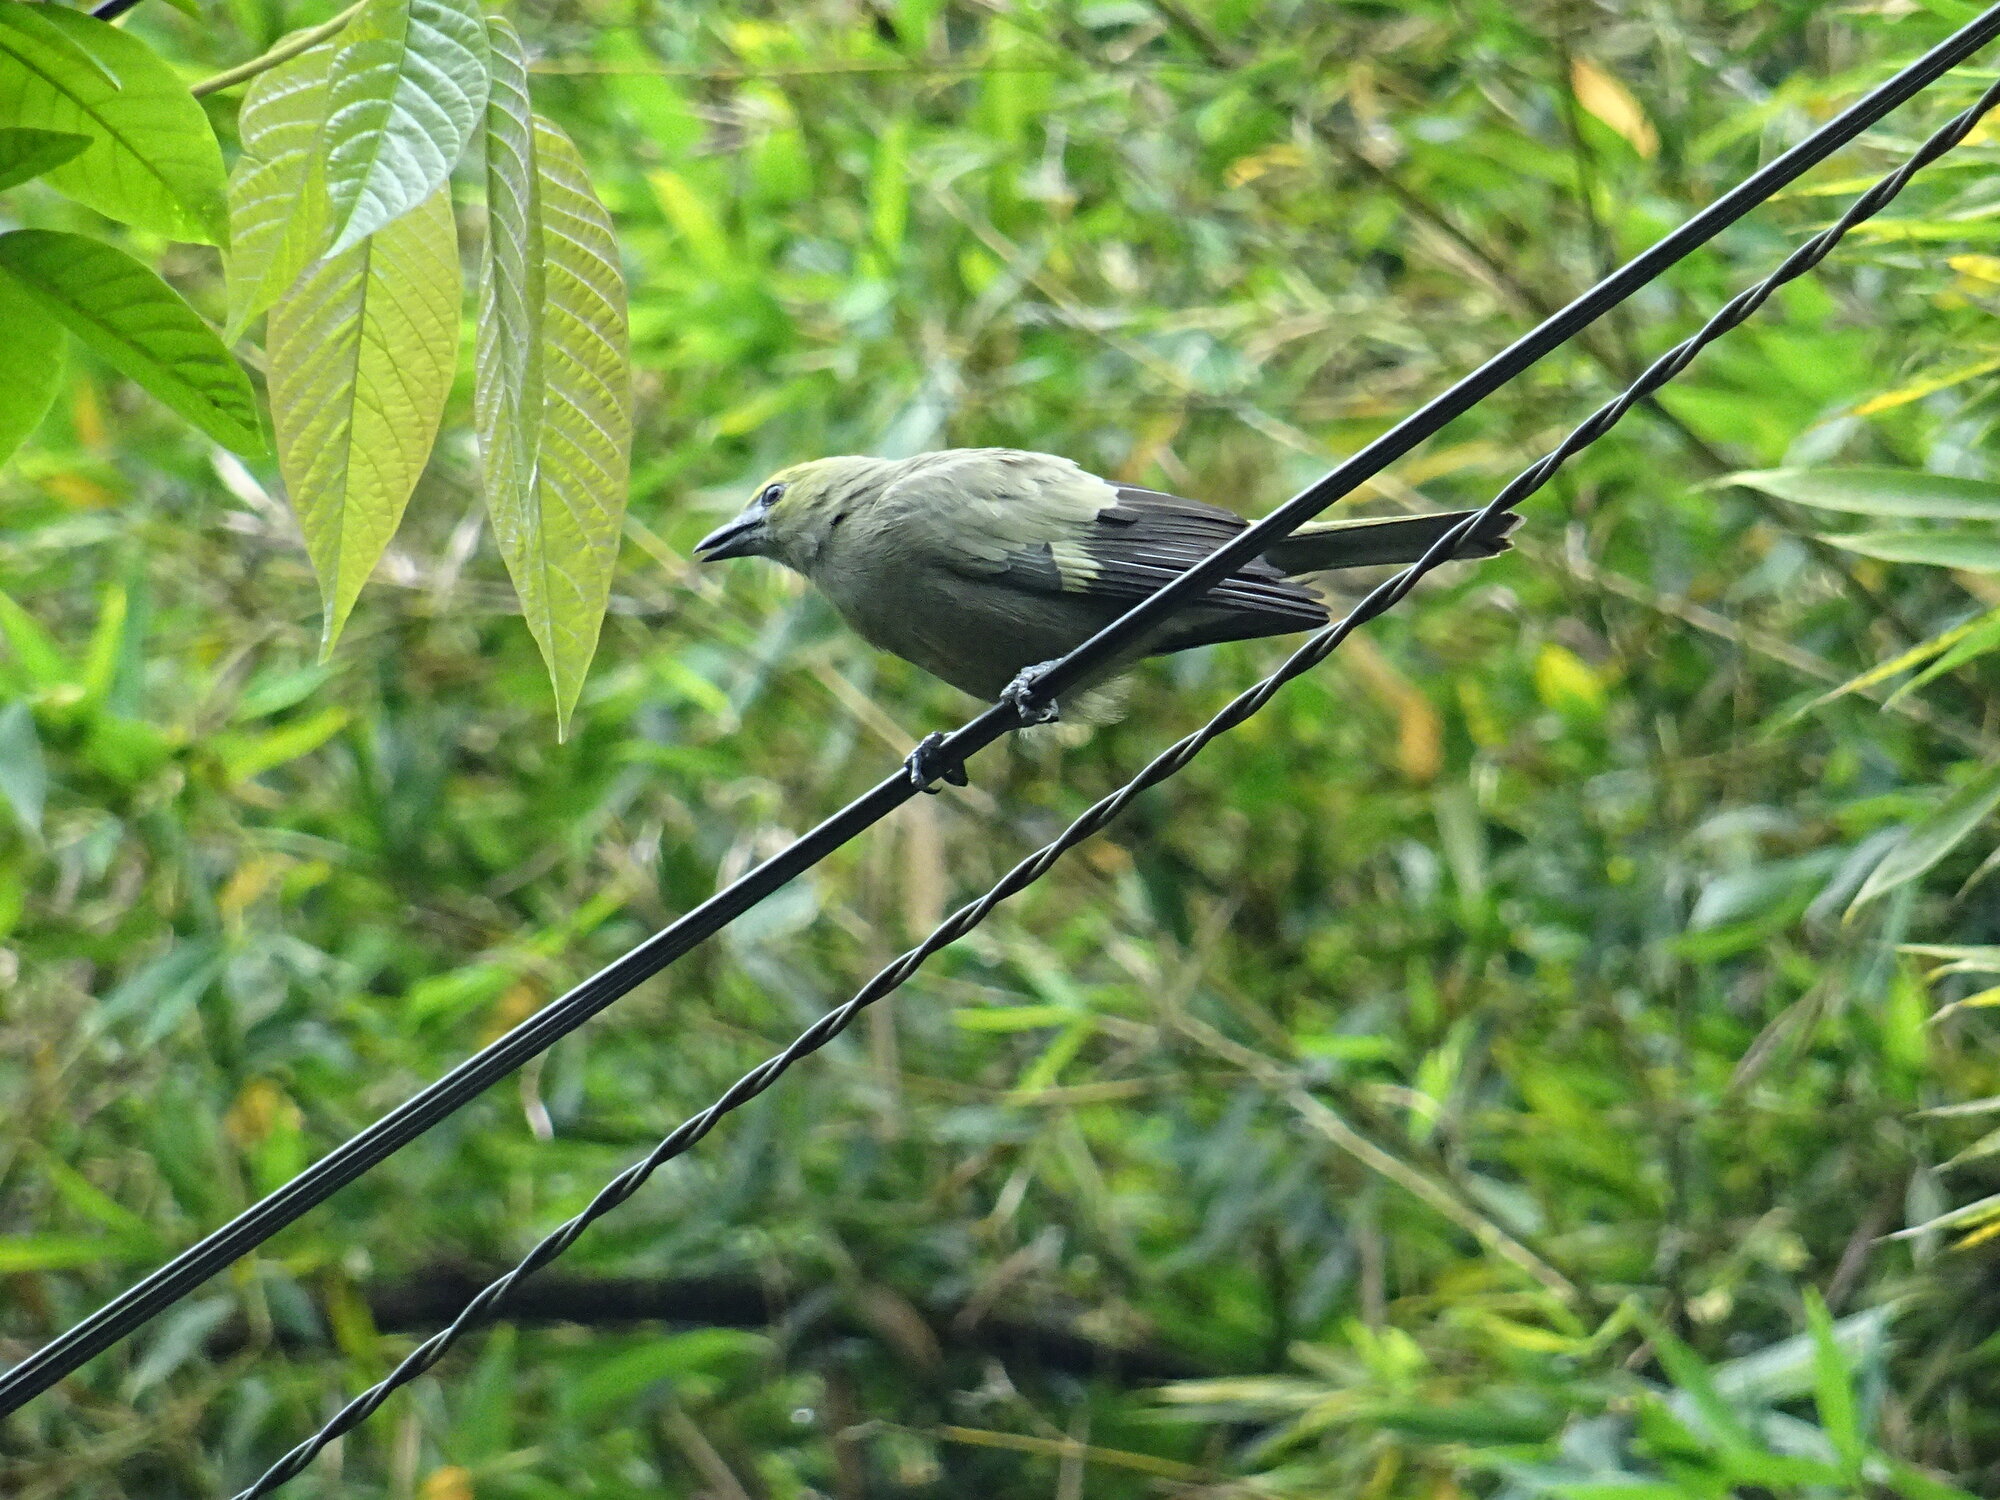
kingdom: Animalia
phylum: Chordata
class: Aves
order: Passeriformes
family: Thraupidae
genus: Thraupis
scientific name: Thraupis palmarum
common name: Palm tanager
